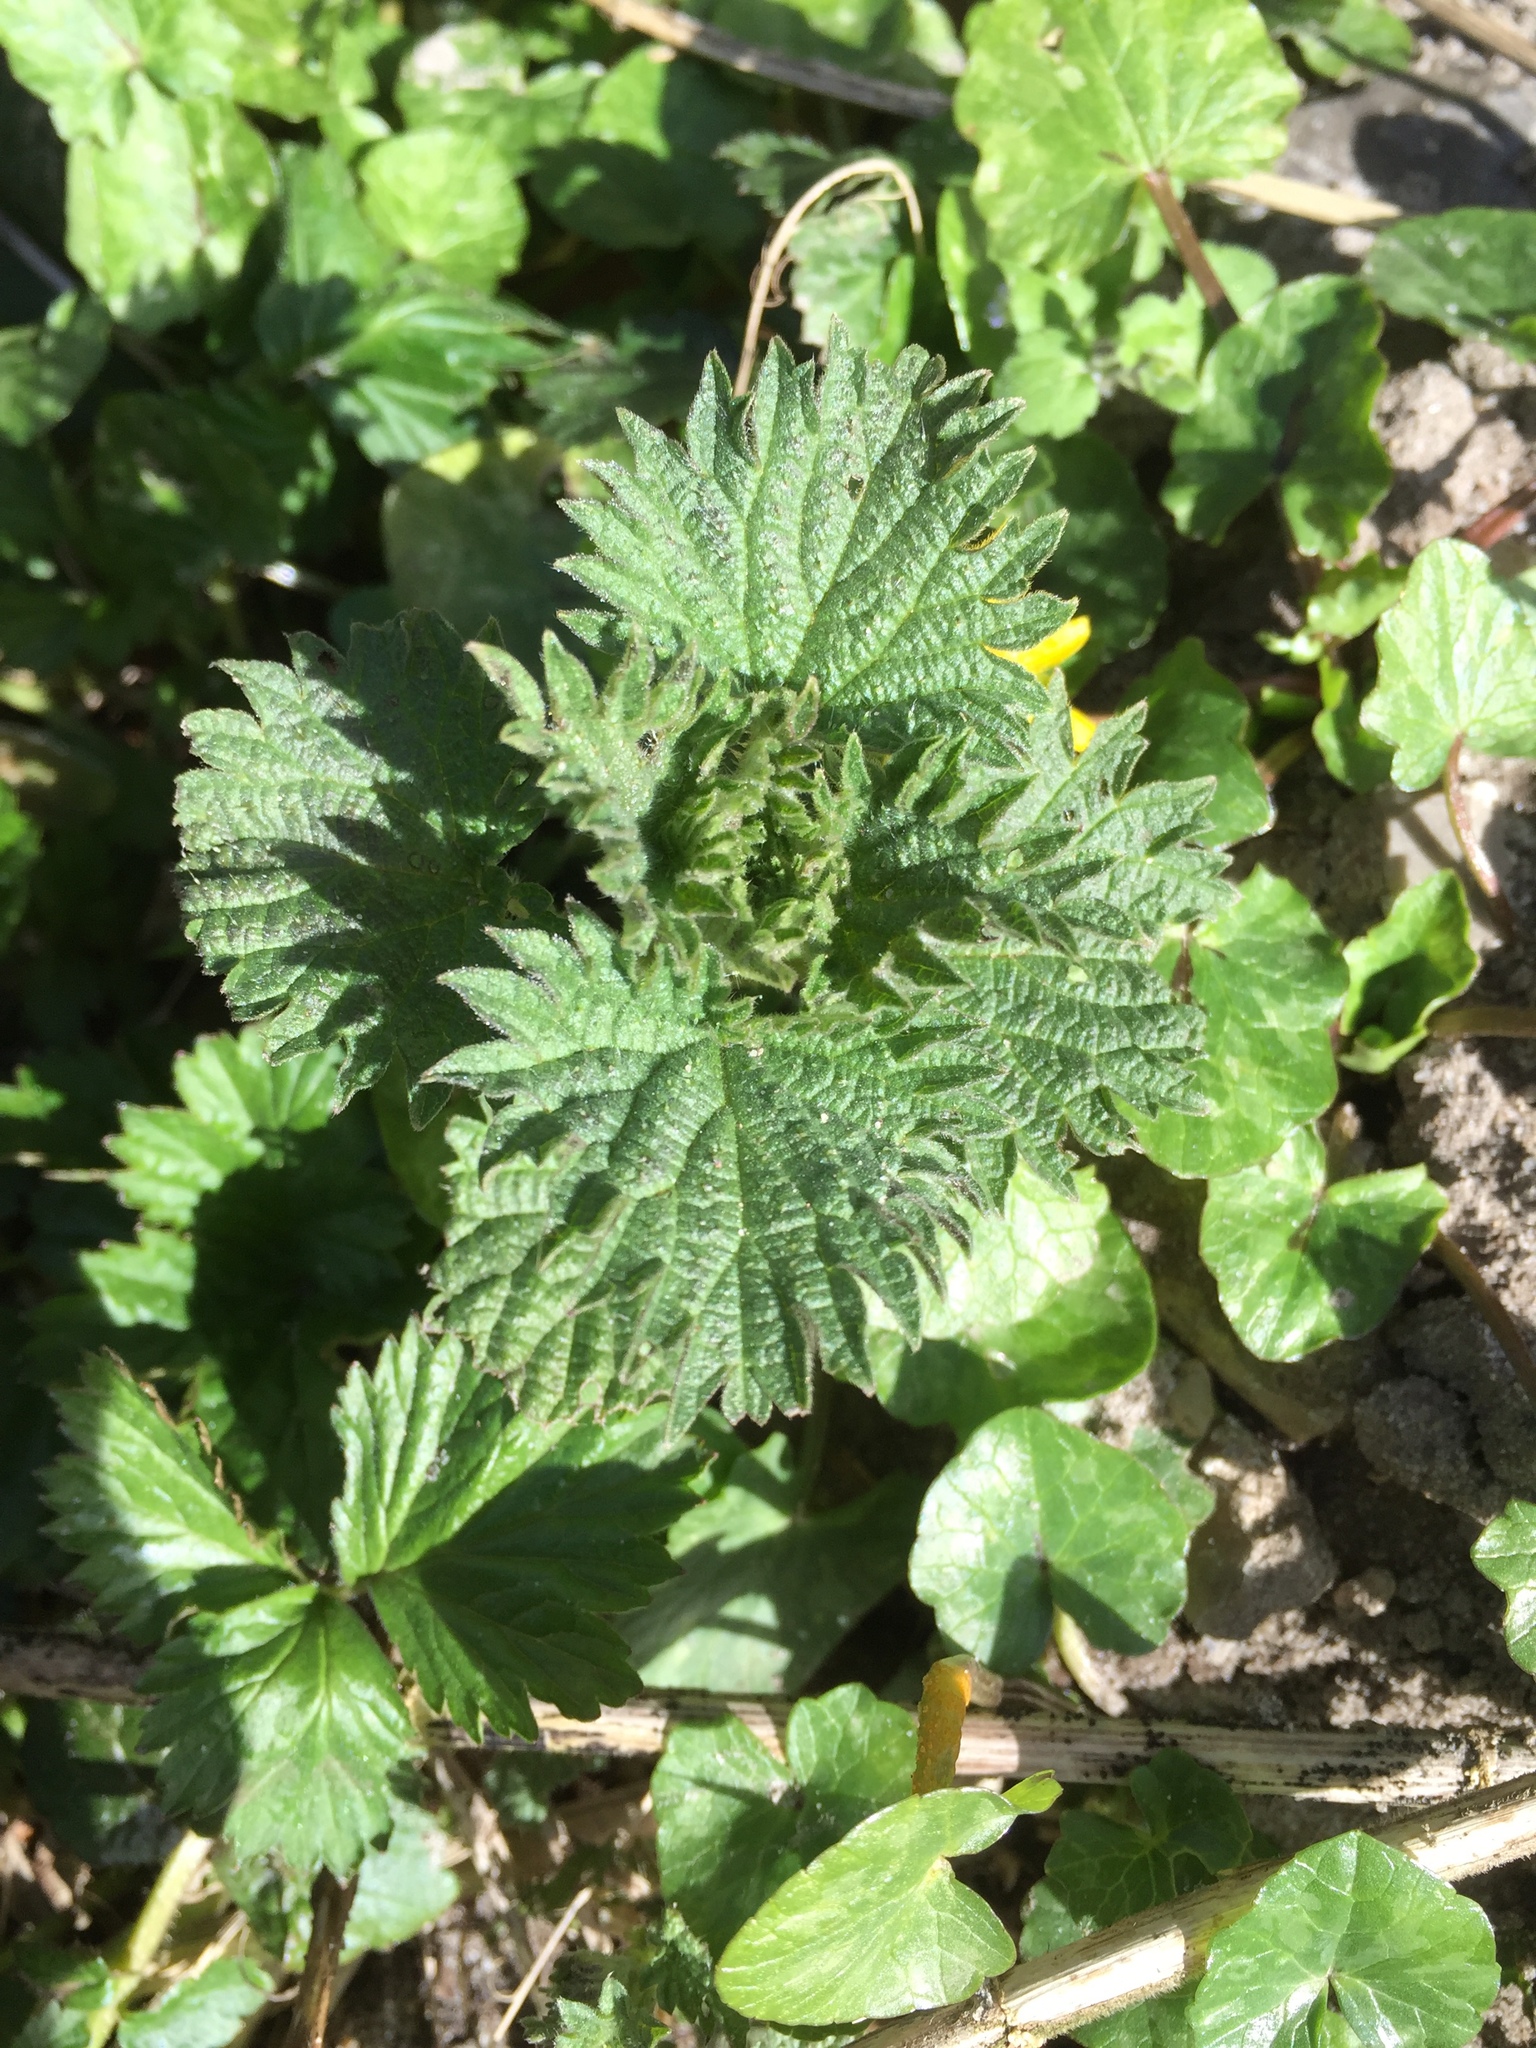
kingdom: Plantae
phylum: Tracheophyta
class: Magnoliopsida
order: Rosales
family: Urticaceae
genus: Urtica
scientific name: Urtica dioica
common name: Common nettle
